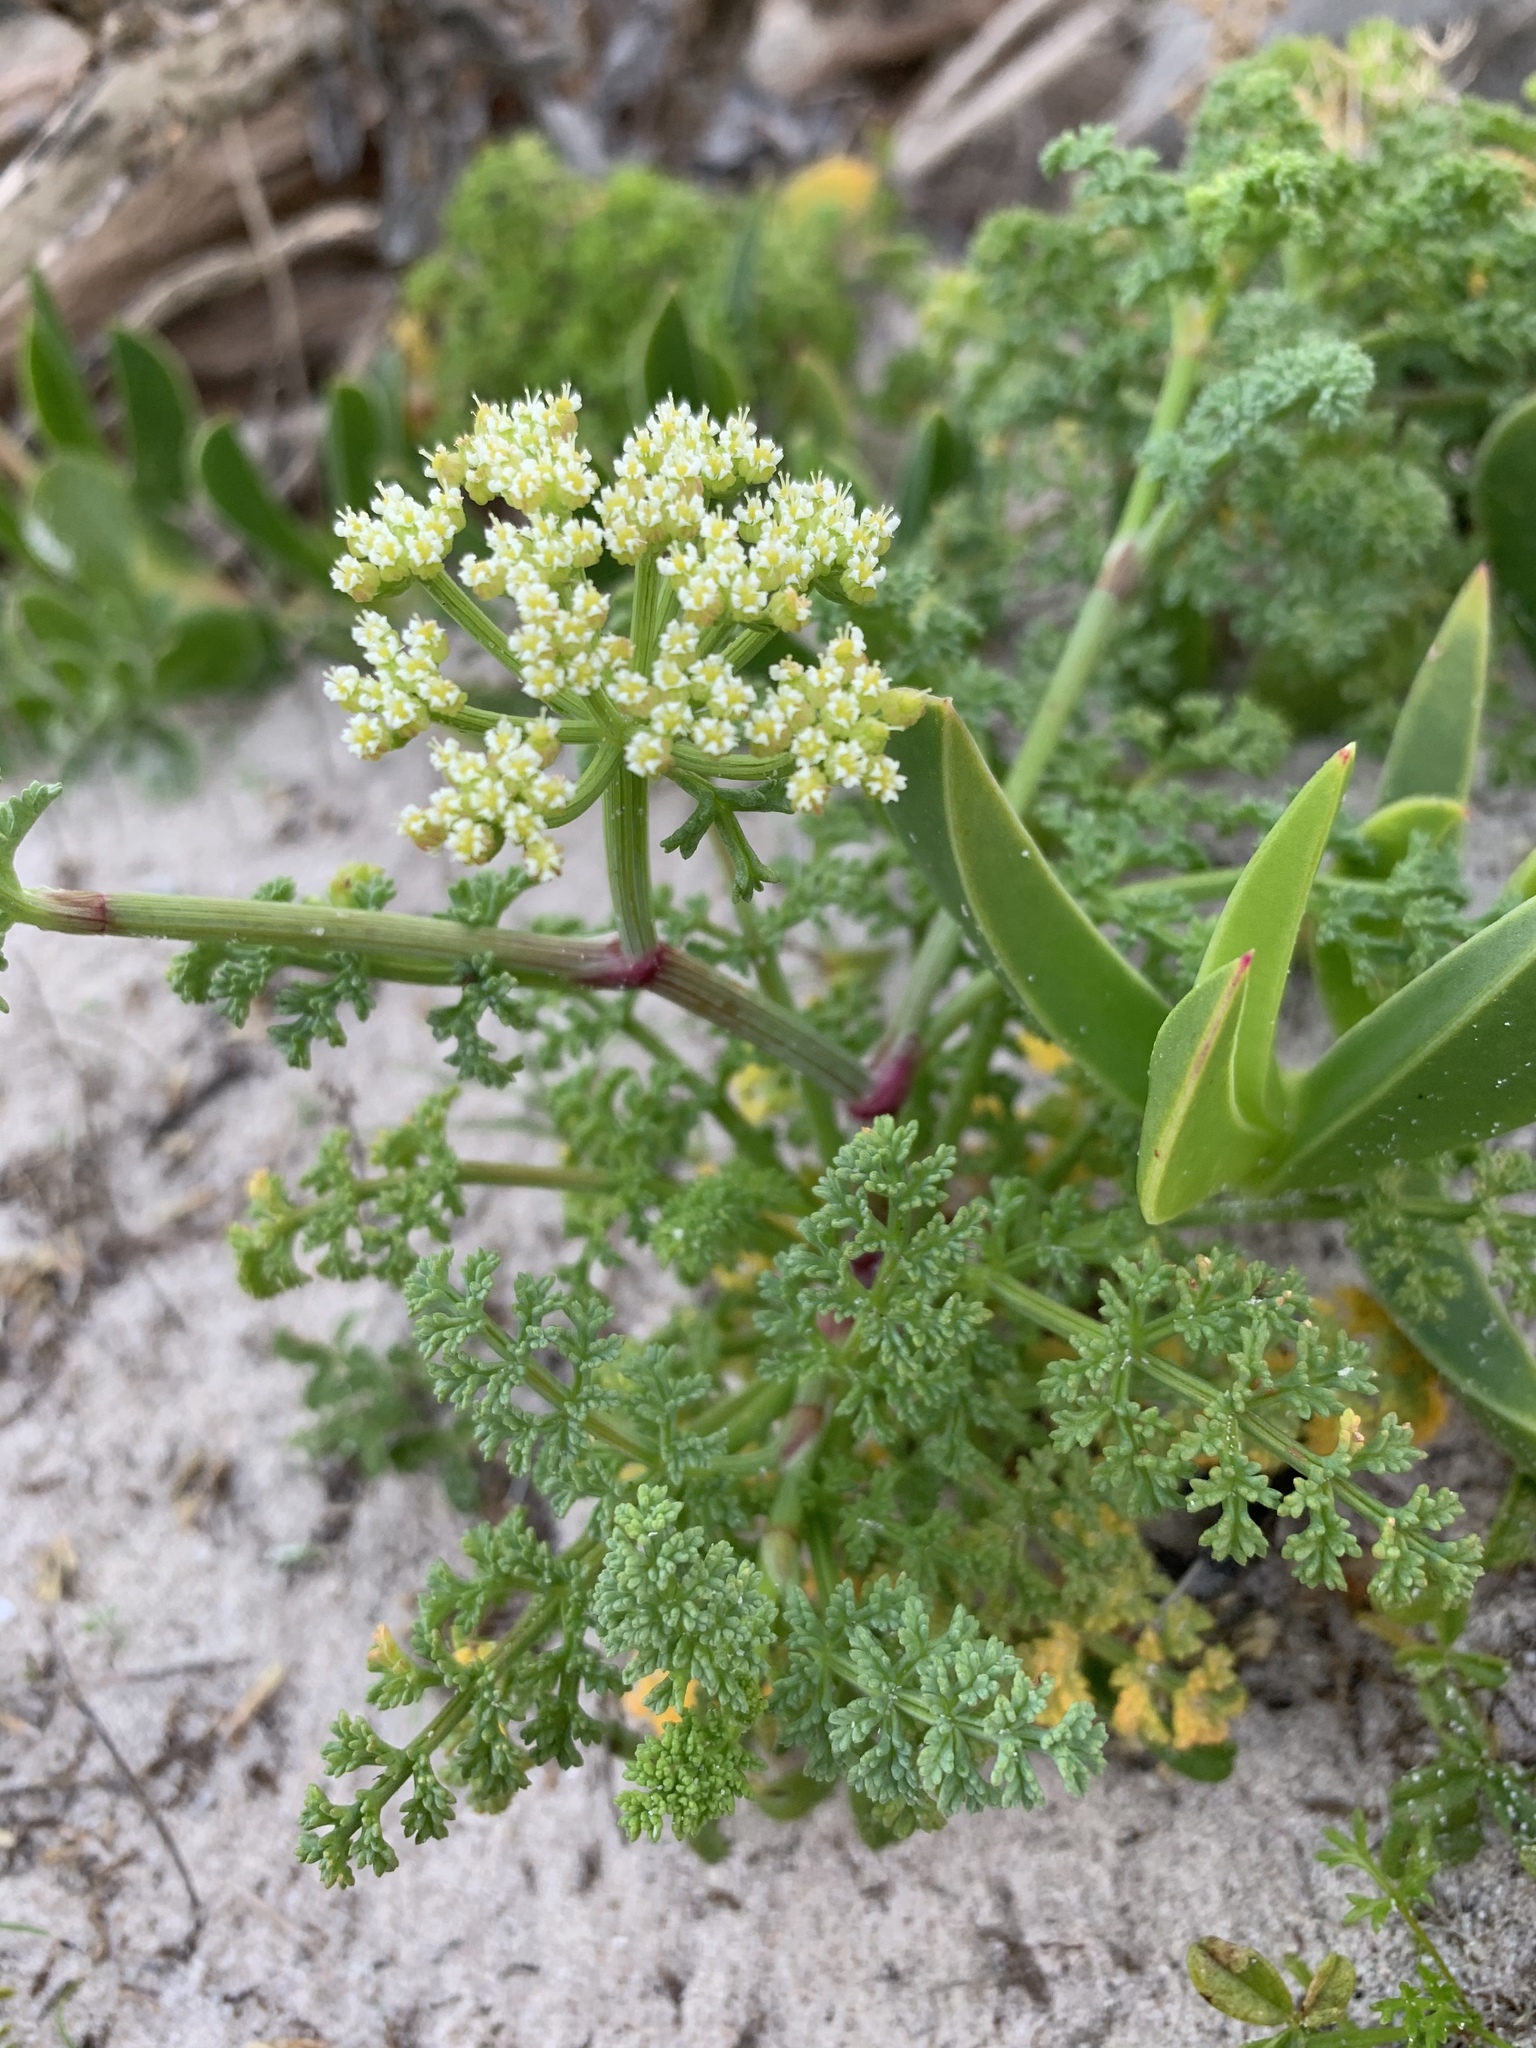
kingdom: Plantae
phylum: Tracheophyta
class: Magnoliopsida
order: Apiales
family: Apiaceae
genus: Dasispermum
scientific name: Dasispermum suffruticosum
